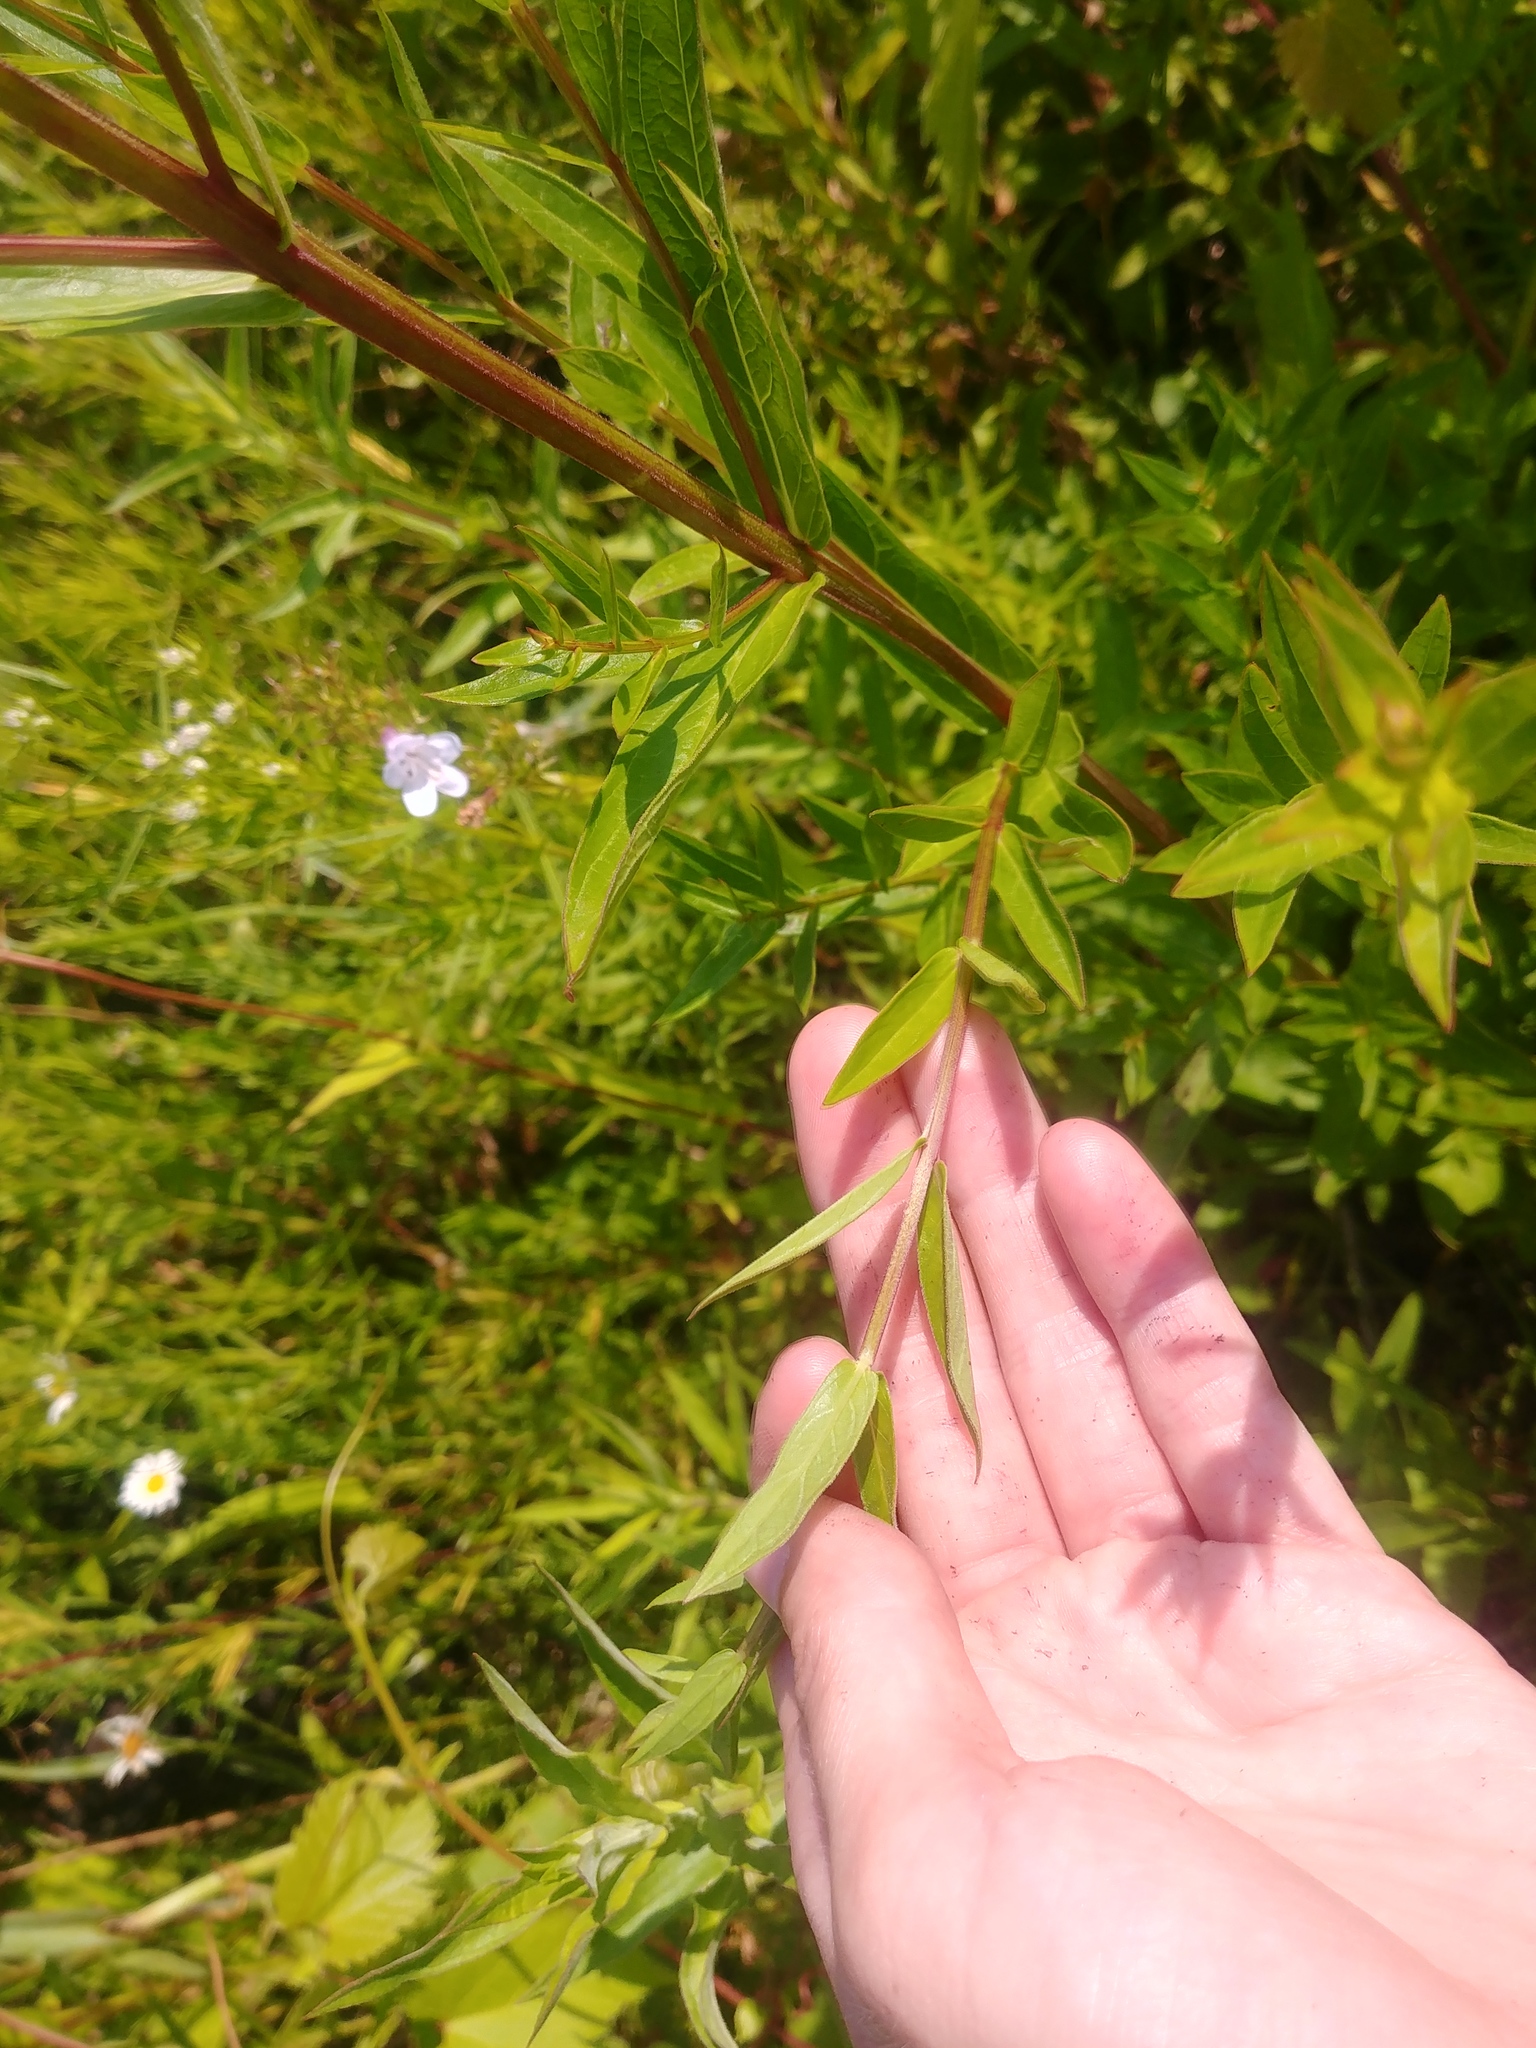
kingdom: Plantae
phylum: Tracheophyta
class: Magnoliopsida
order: Myrtales
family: Lythraceae
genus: Lythrum
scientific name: Lythrum salicaria
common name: Purple loosestrife
